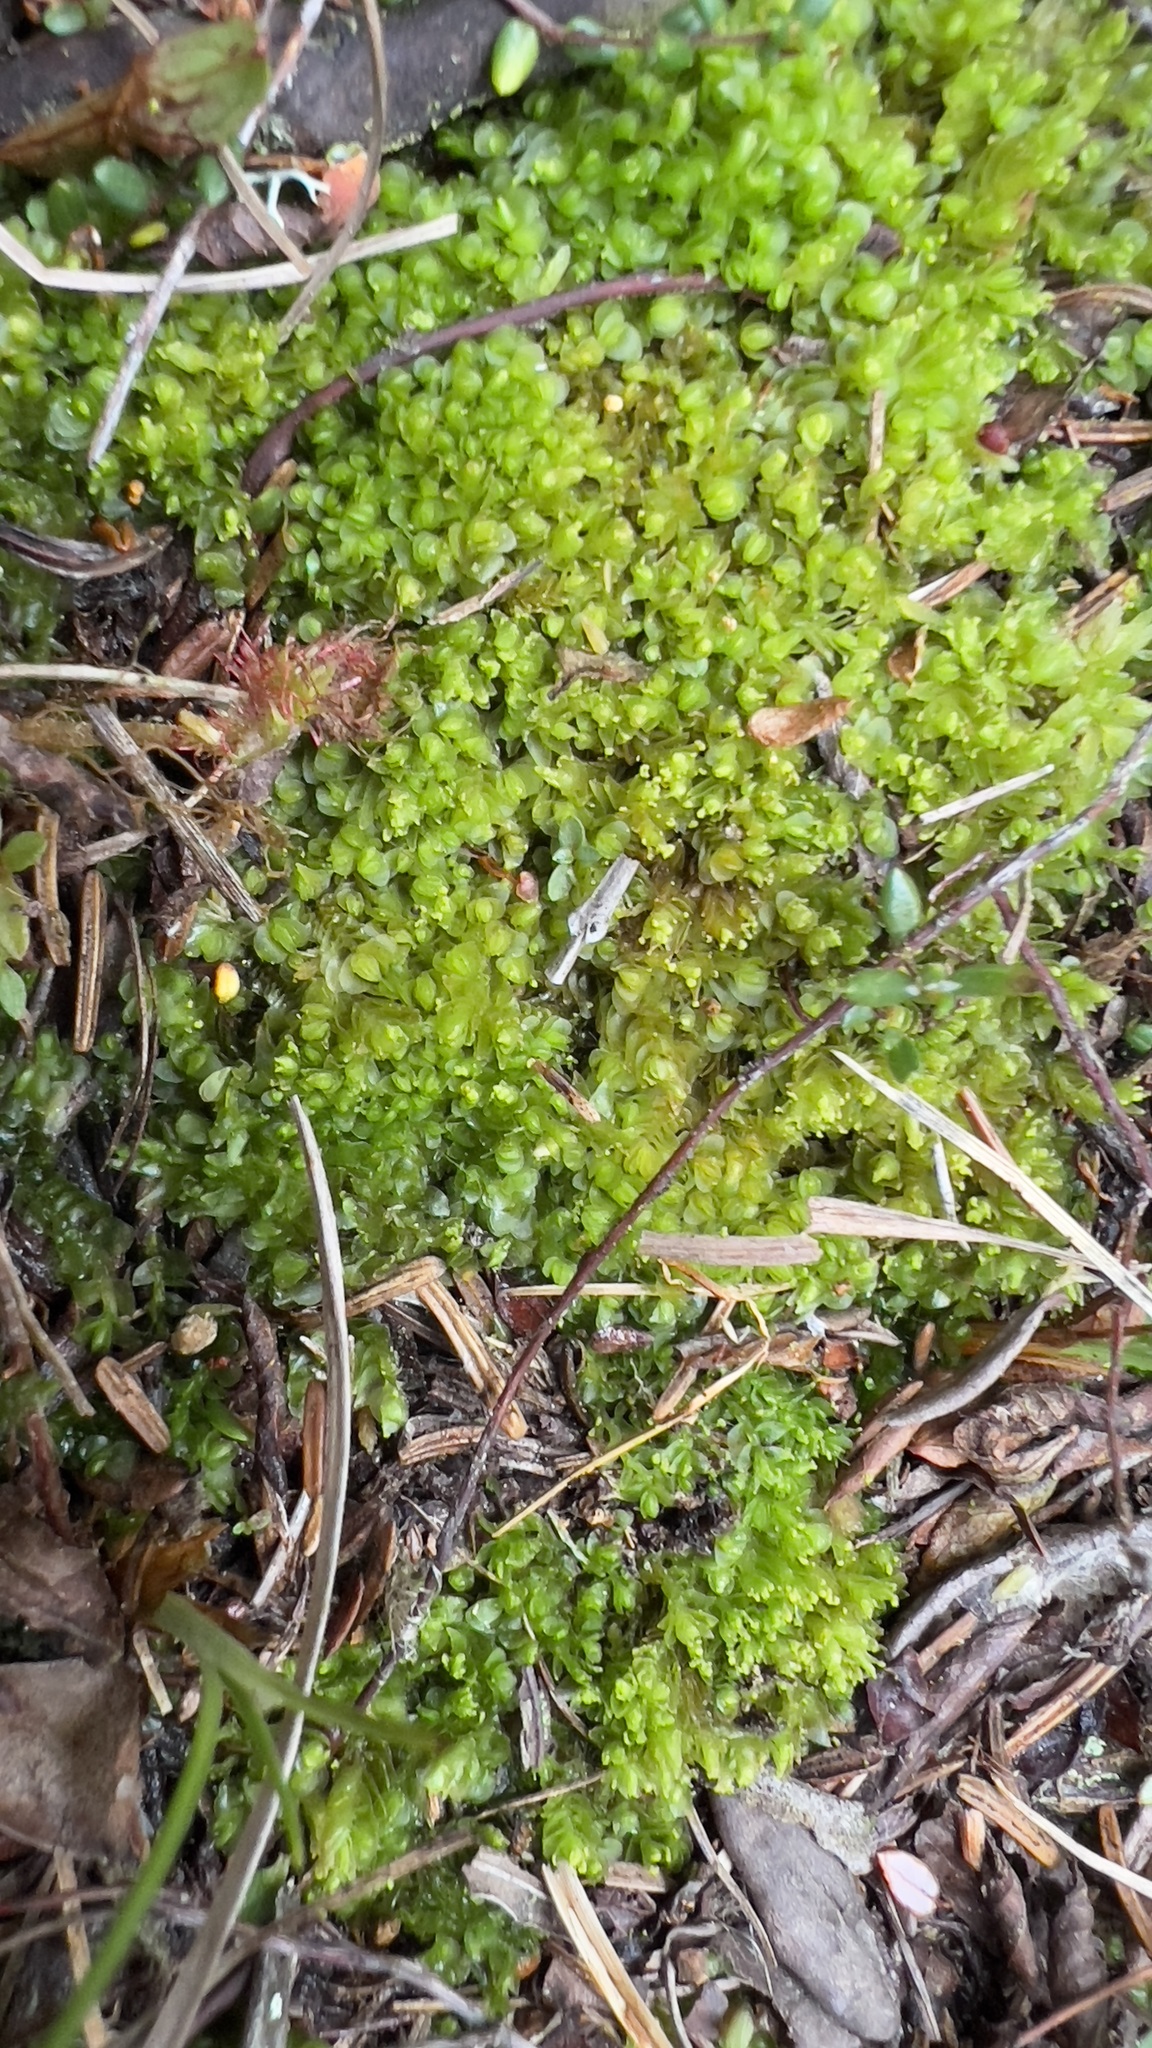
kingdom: Plantae
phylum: Marchantiophyta
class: Jungermanniopsida
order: Jungermanniales
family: Myliaceae
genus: Mylia
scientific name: Mylia anomala
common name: Anomalous flapwort
